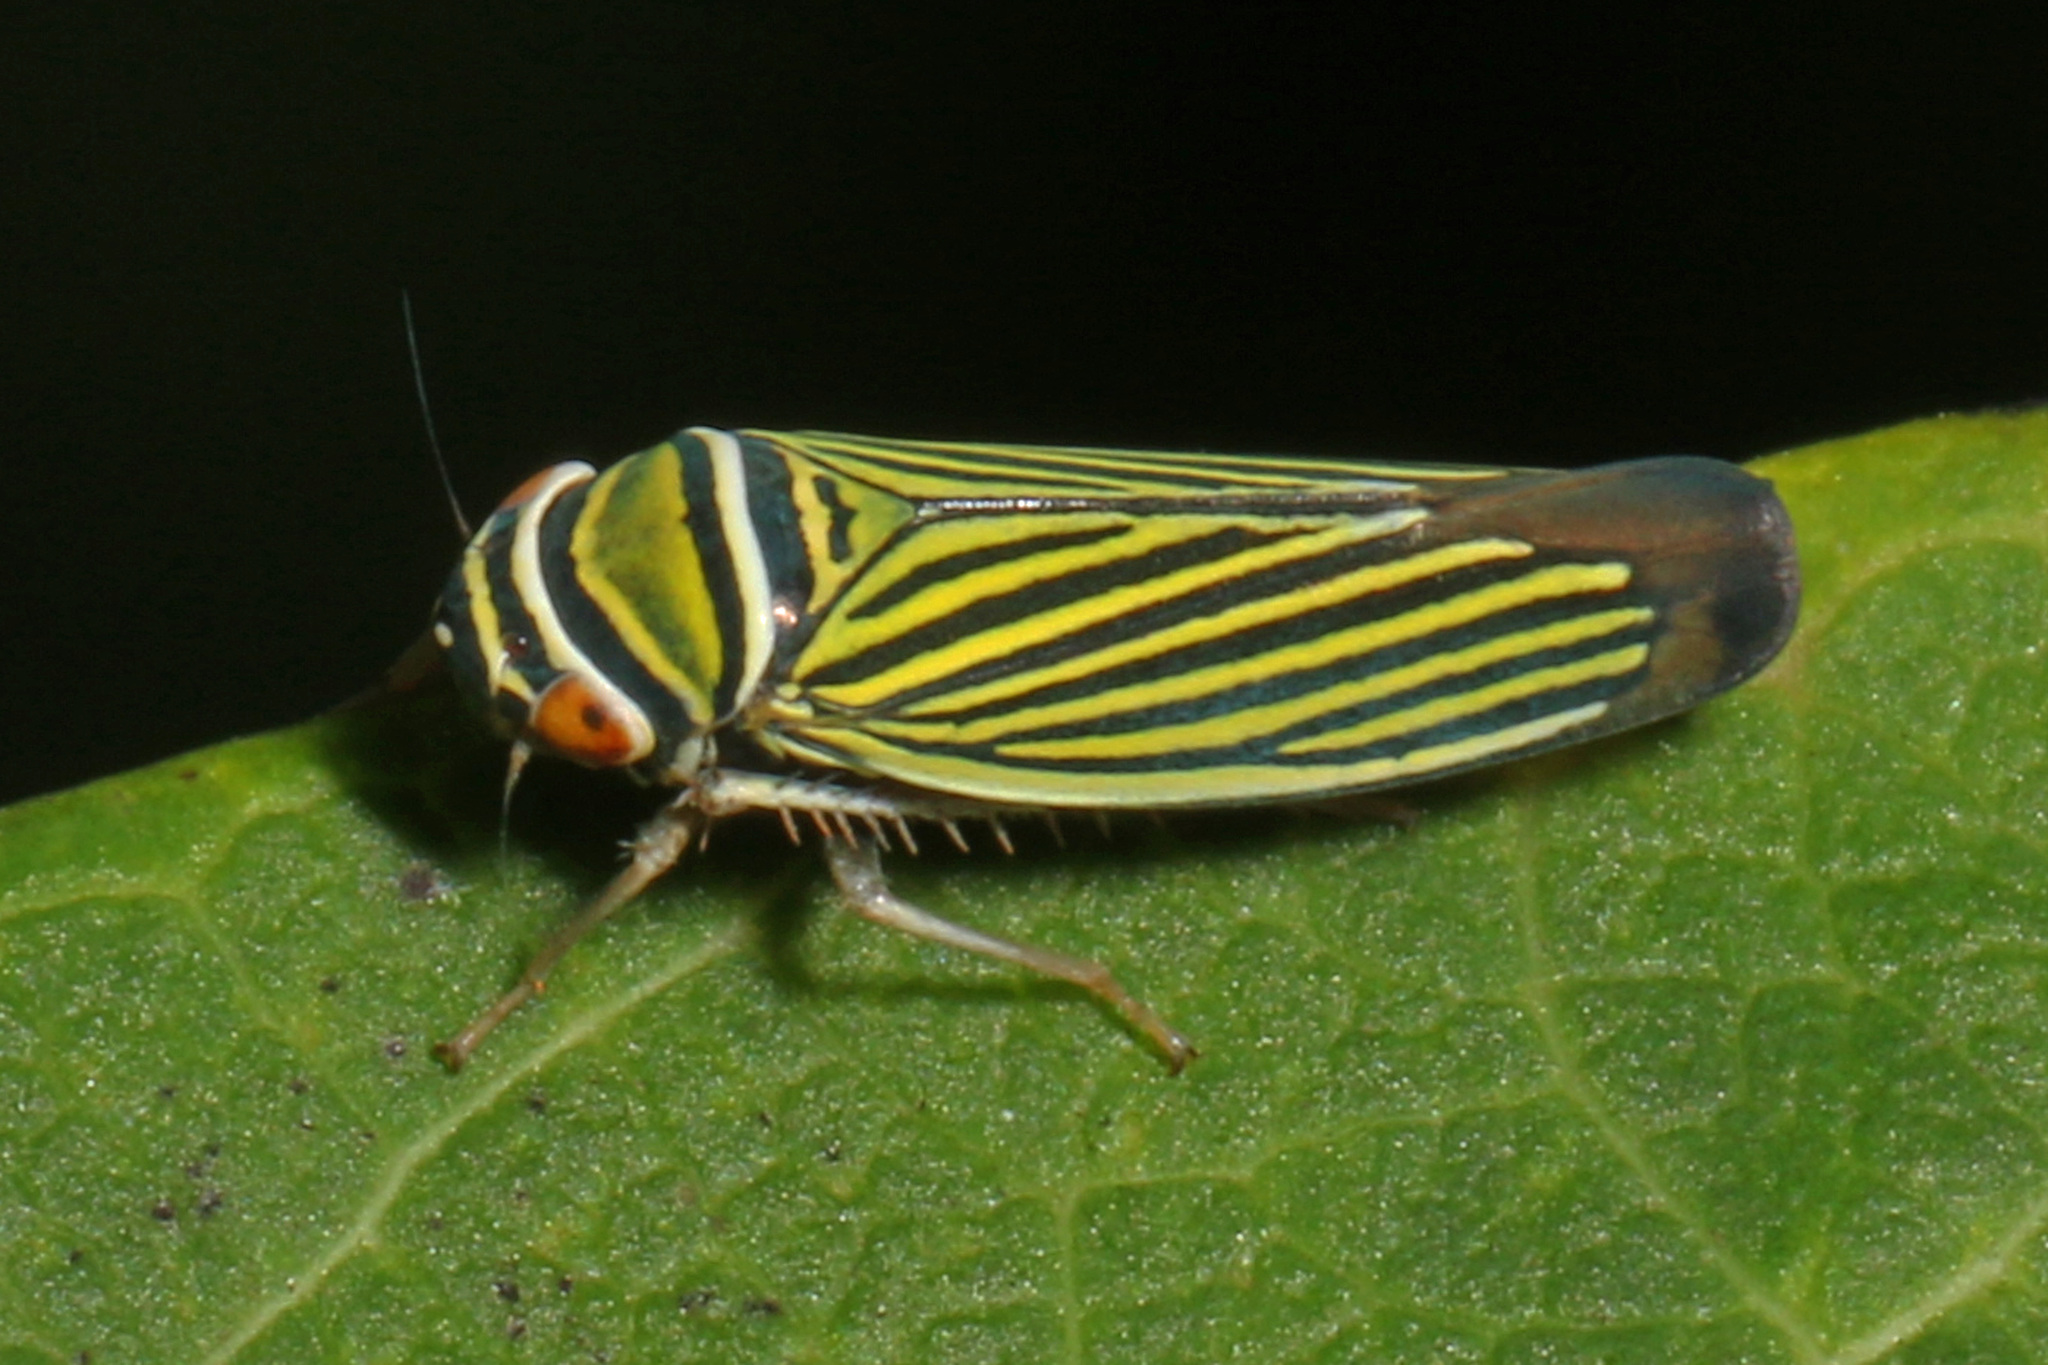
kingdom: Animalia
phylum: Arthropoda
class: Insecta
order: Hemiptera
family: Cicadellidae
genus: Tylozygus
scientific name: Tylozygus bifidus
